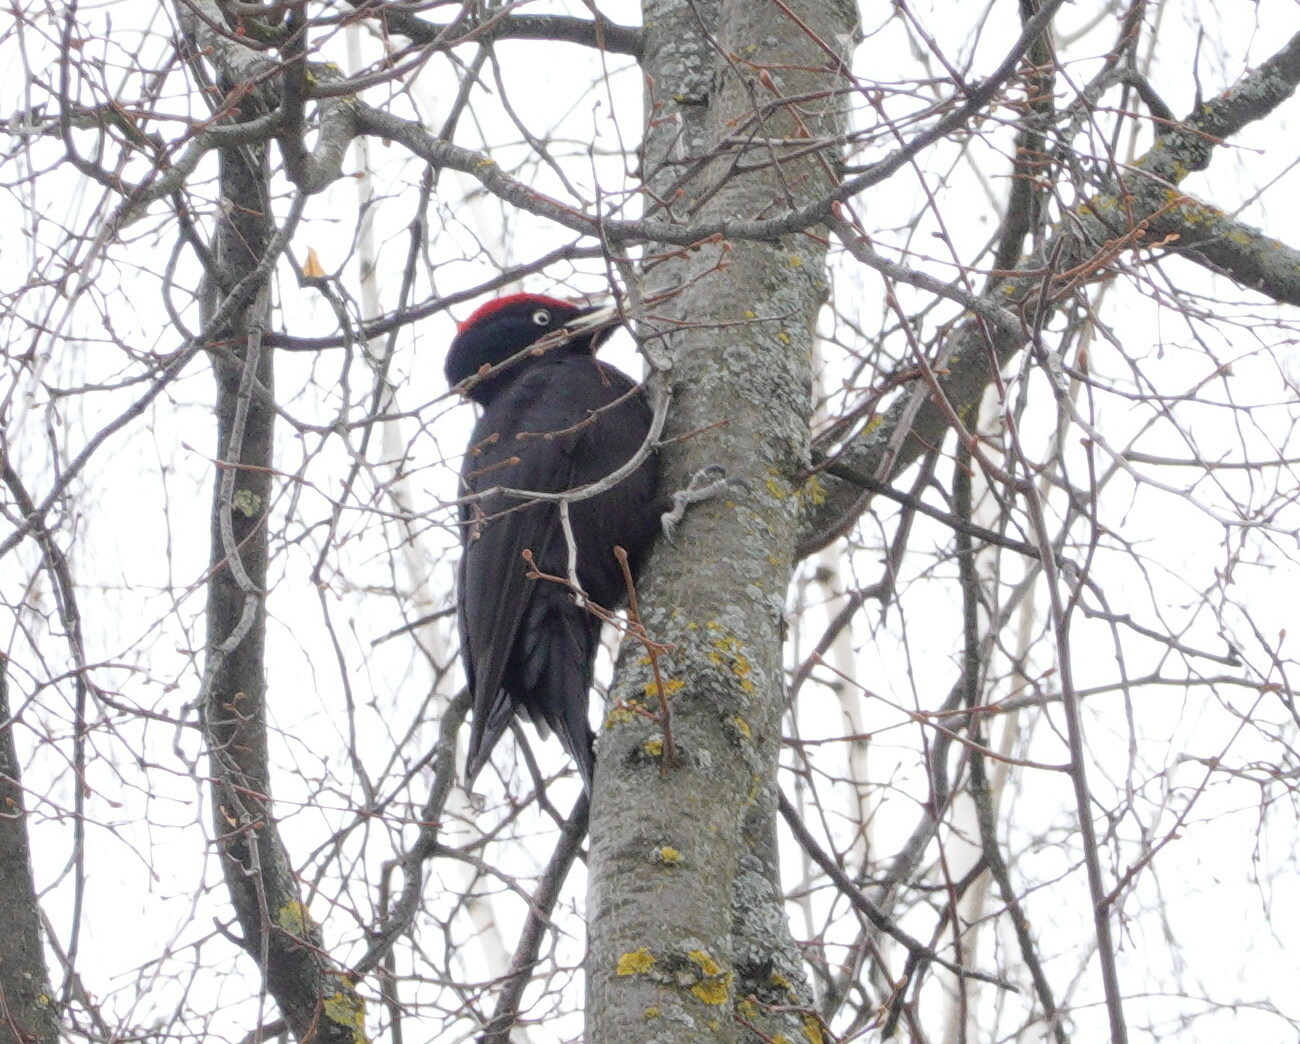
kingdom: Animalia
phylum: Chordata
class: Aves
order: Piciformes
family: Picidae
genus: Dryocopus
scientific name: Dryocopus martius
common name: Black woodpecker
